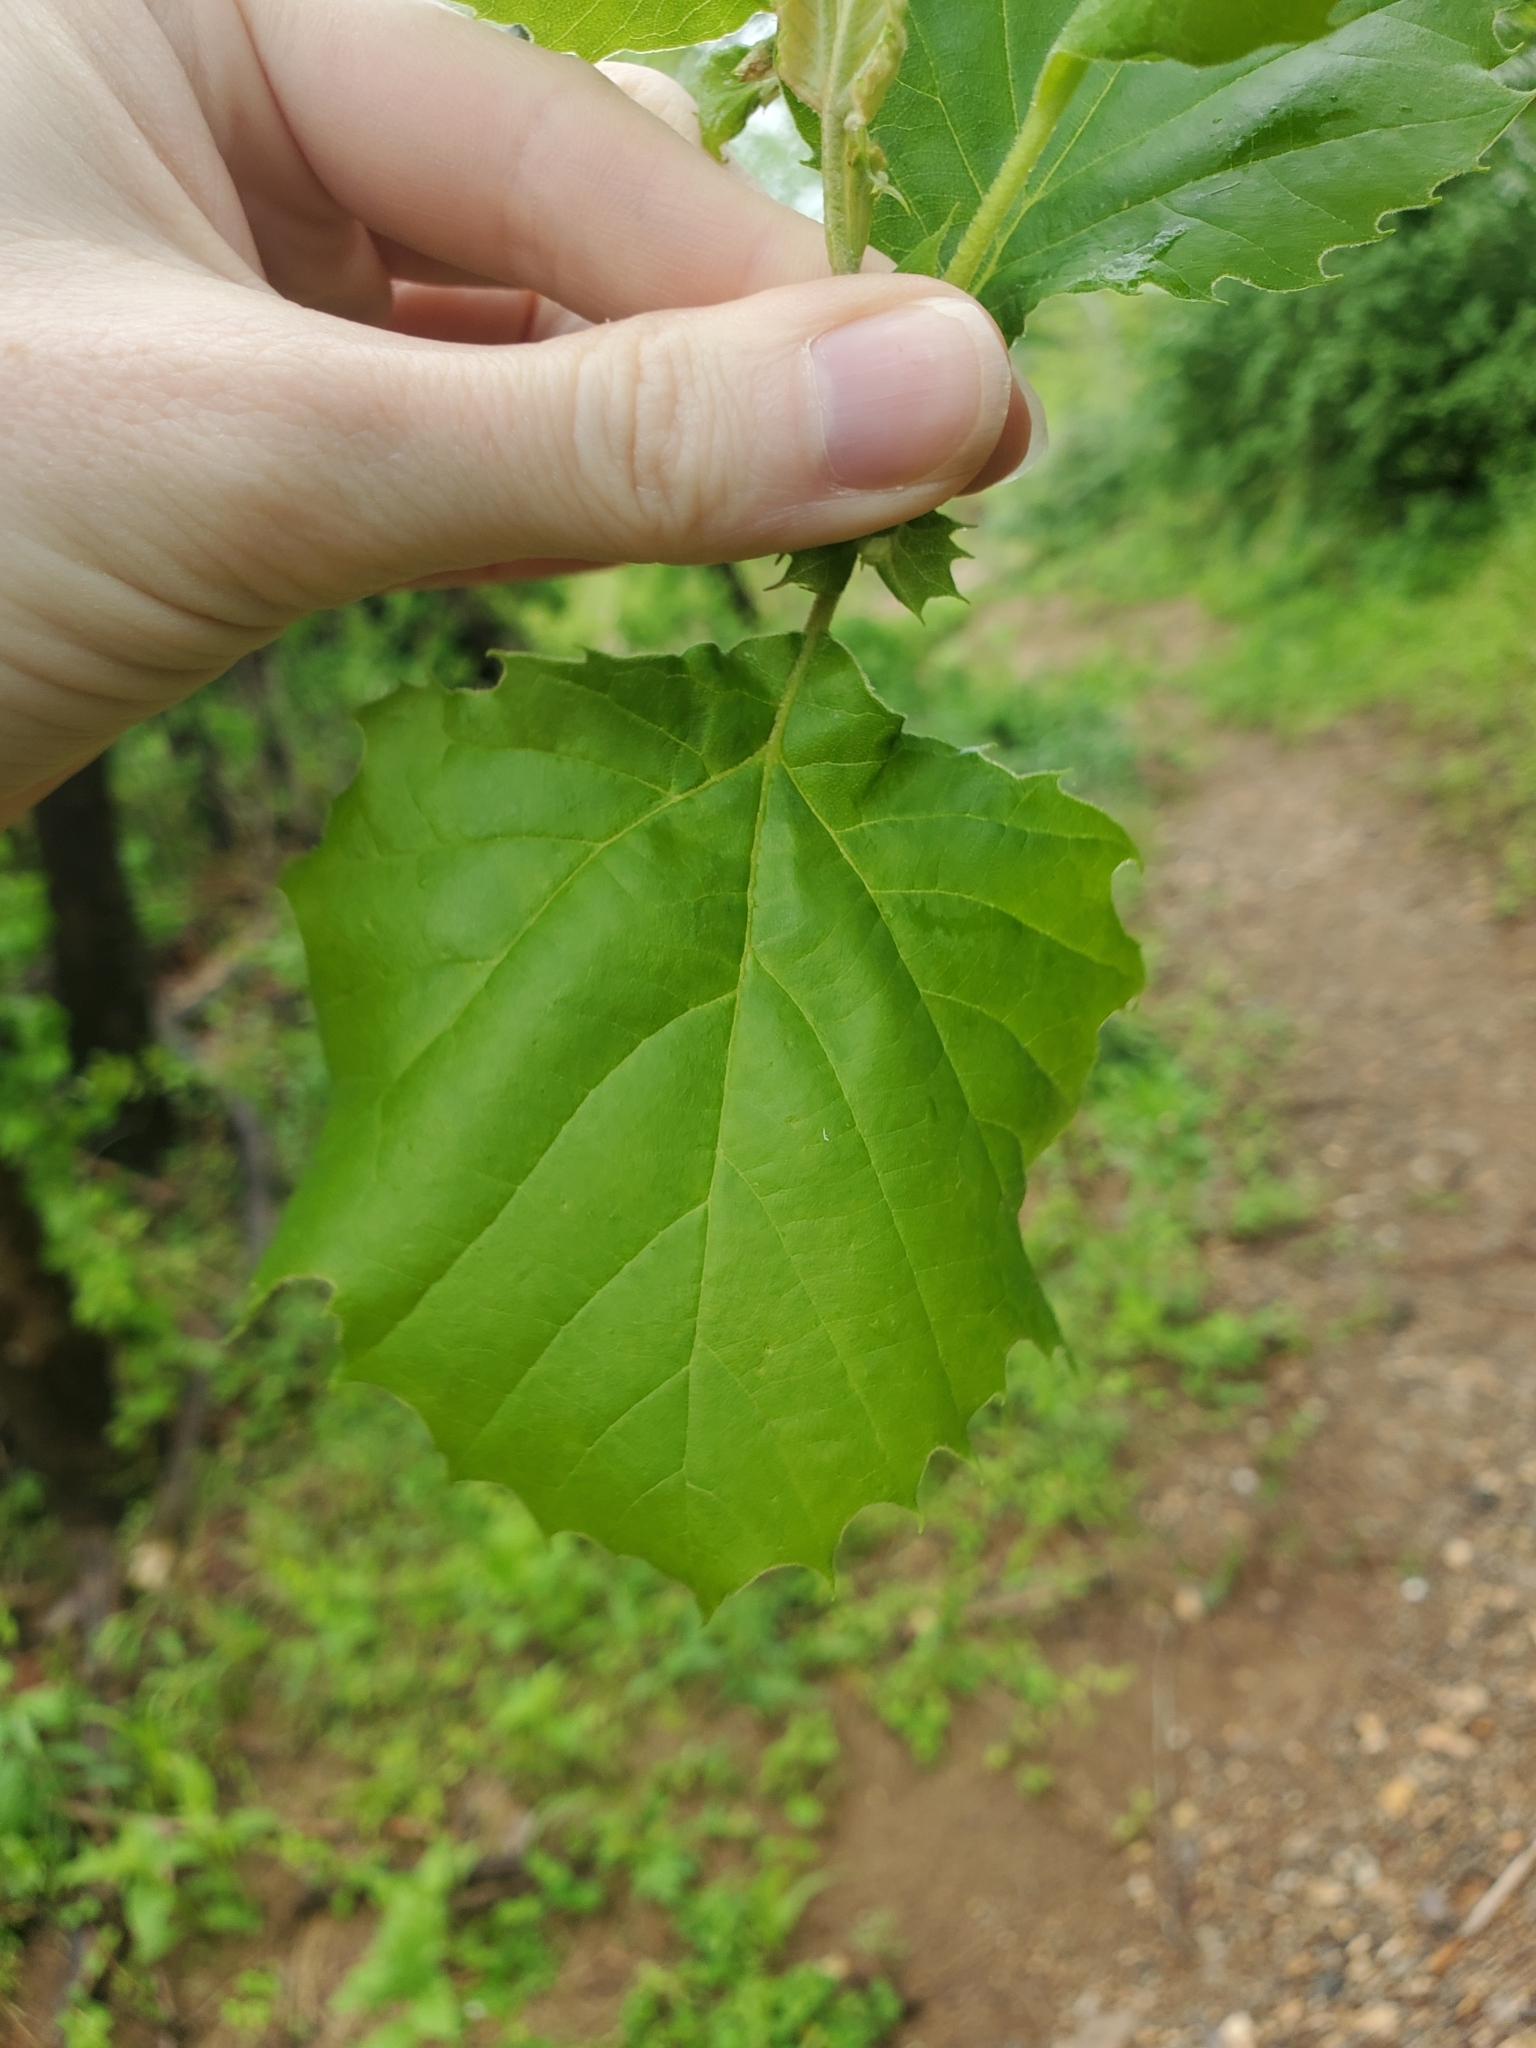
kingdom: Plantae
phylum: Tracheophyta
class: Magnoliopsida
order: Proteales
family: Platanaceae
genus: Platanus
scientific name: Platanus occidentalis
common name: American sycamore
